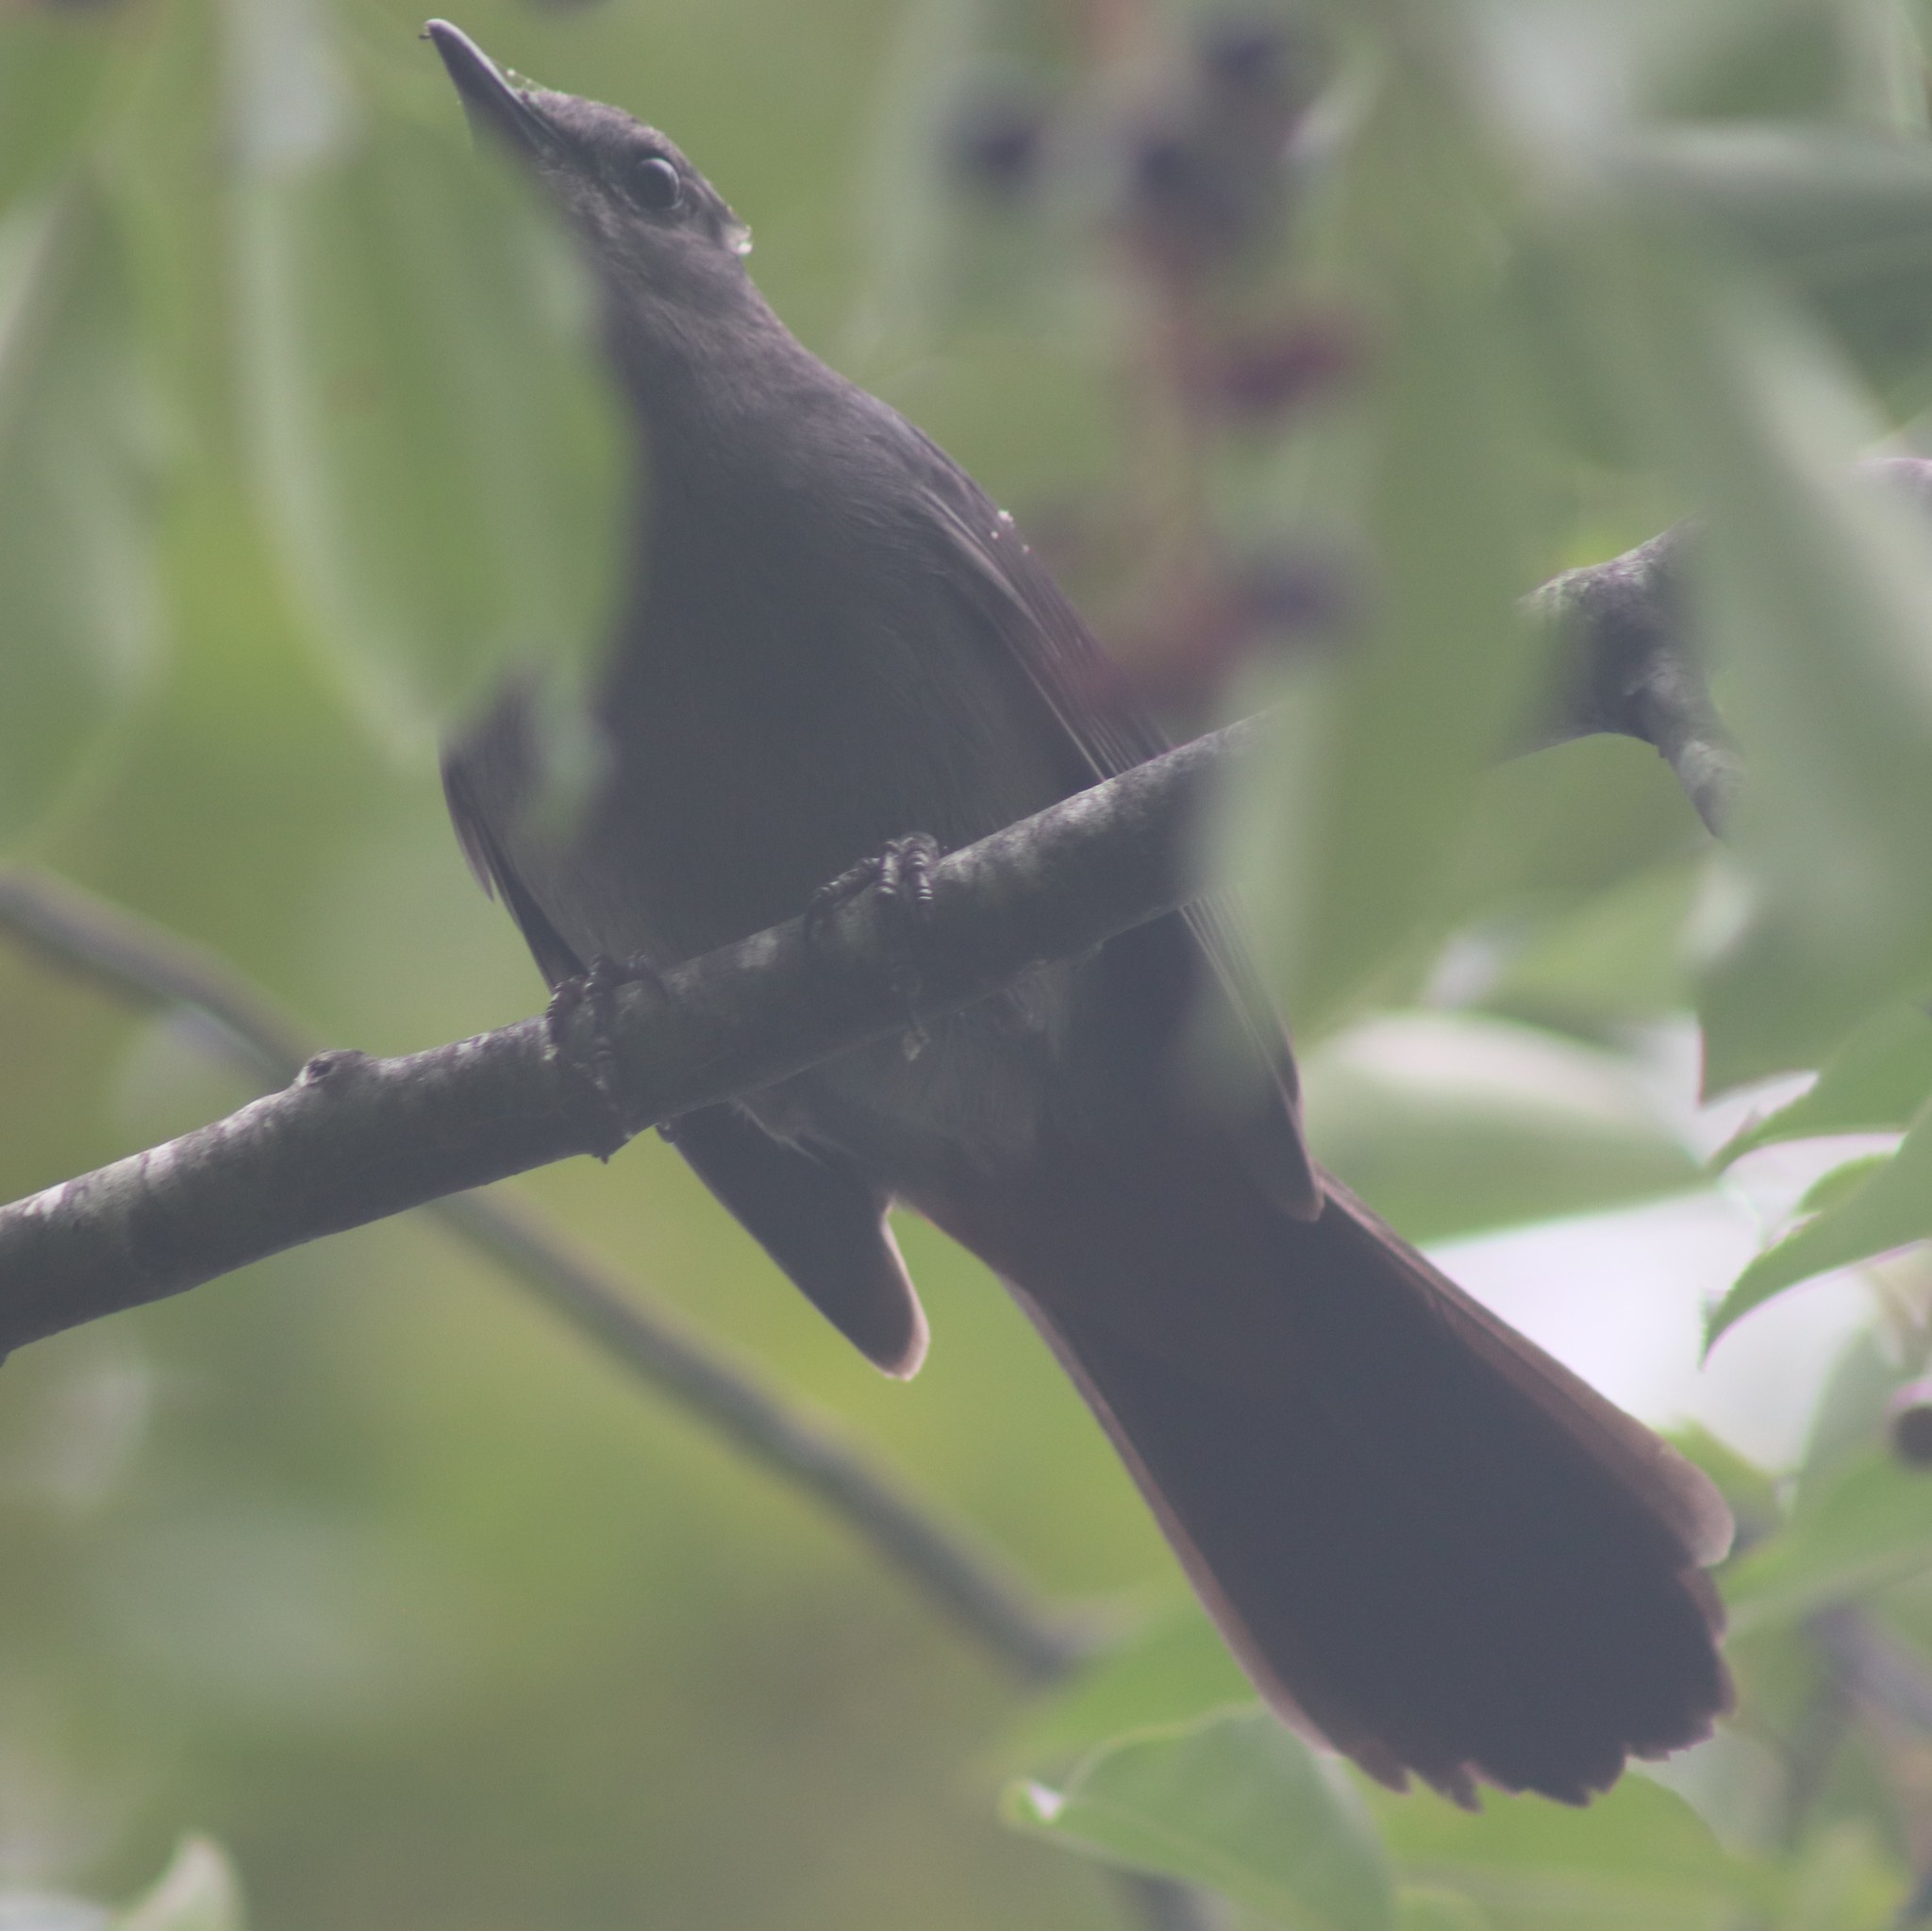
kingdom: Animalia
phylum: Chordata
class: Aves
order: Passeriformes
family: Mimidae
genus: Dumetella
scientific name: Dumetella carolinensis
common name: Gray catbird
